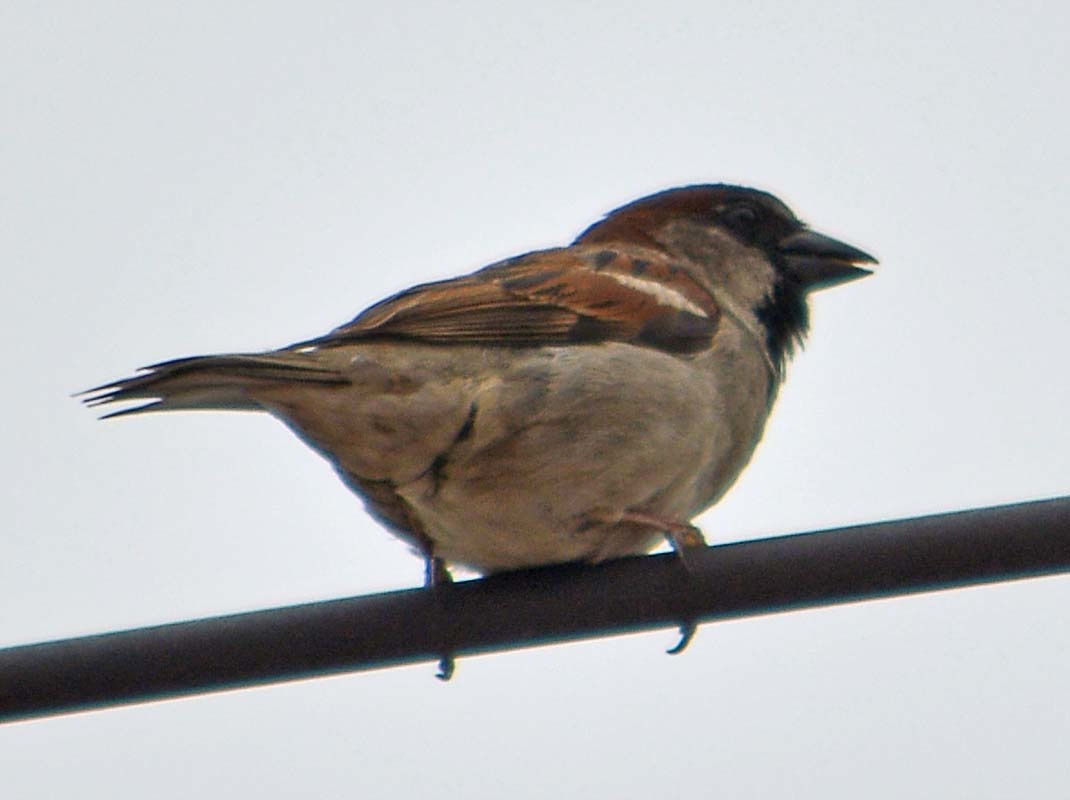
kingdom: Animalia
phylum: Chordata
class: Aves
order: Passeriformes
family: Passeridae
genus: Passer
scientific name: Passer domesticus
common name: House sparrow
